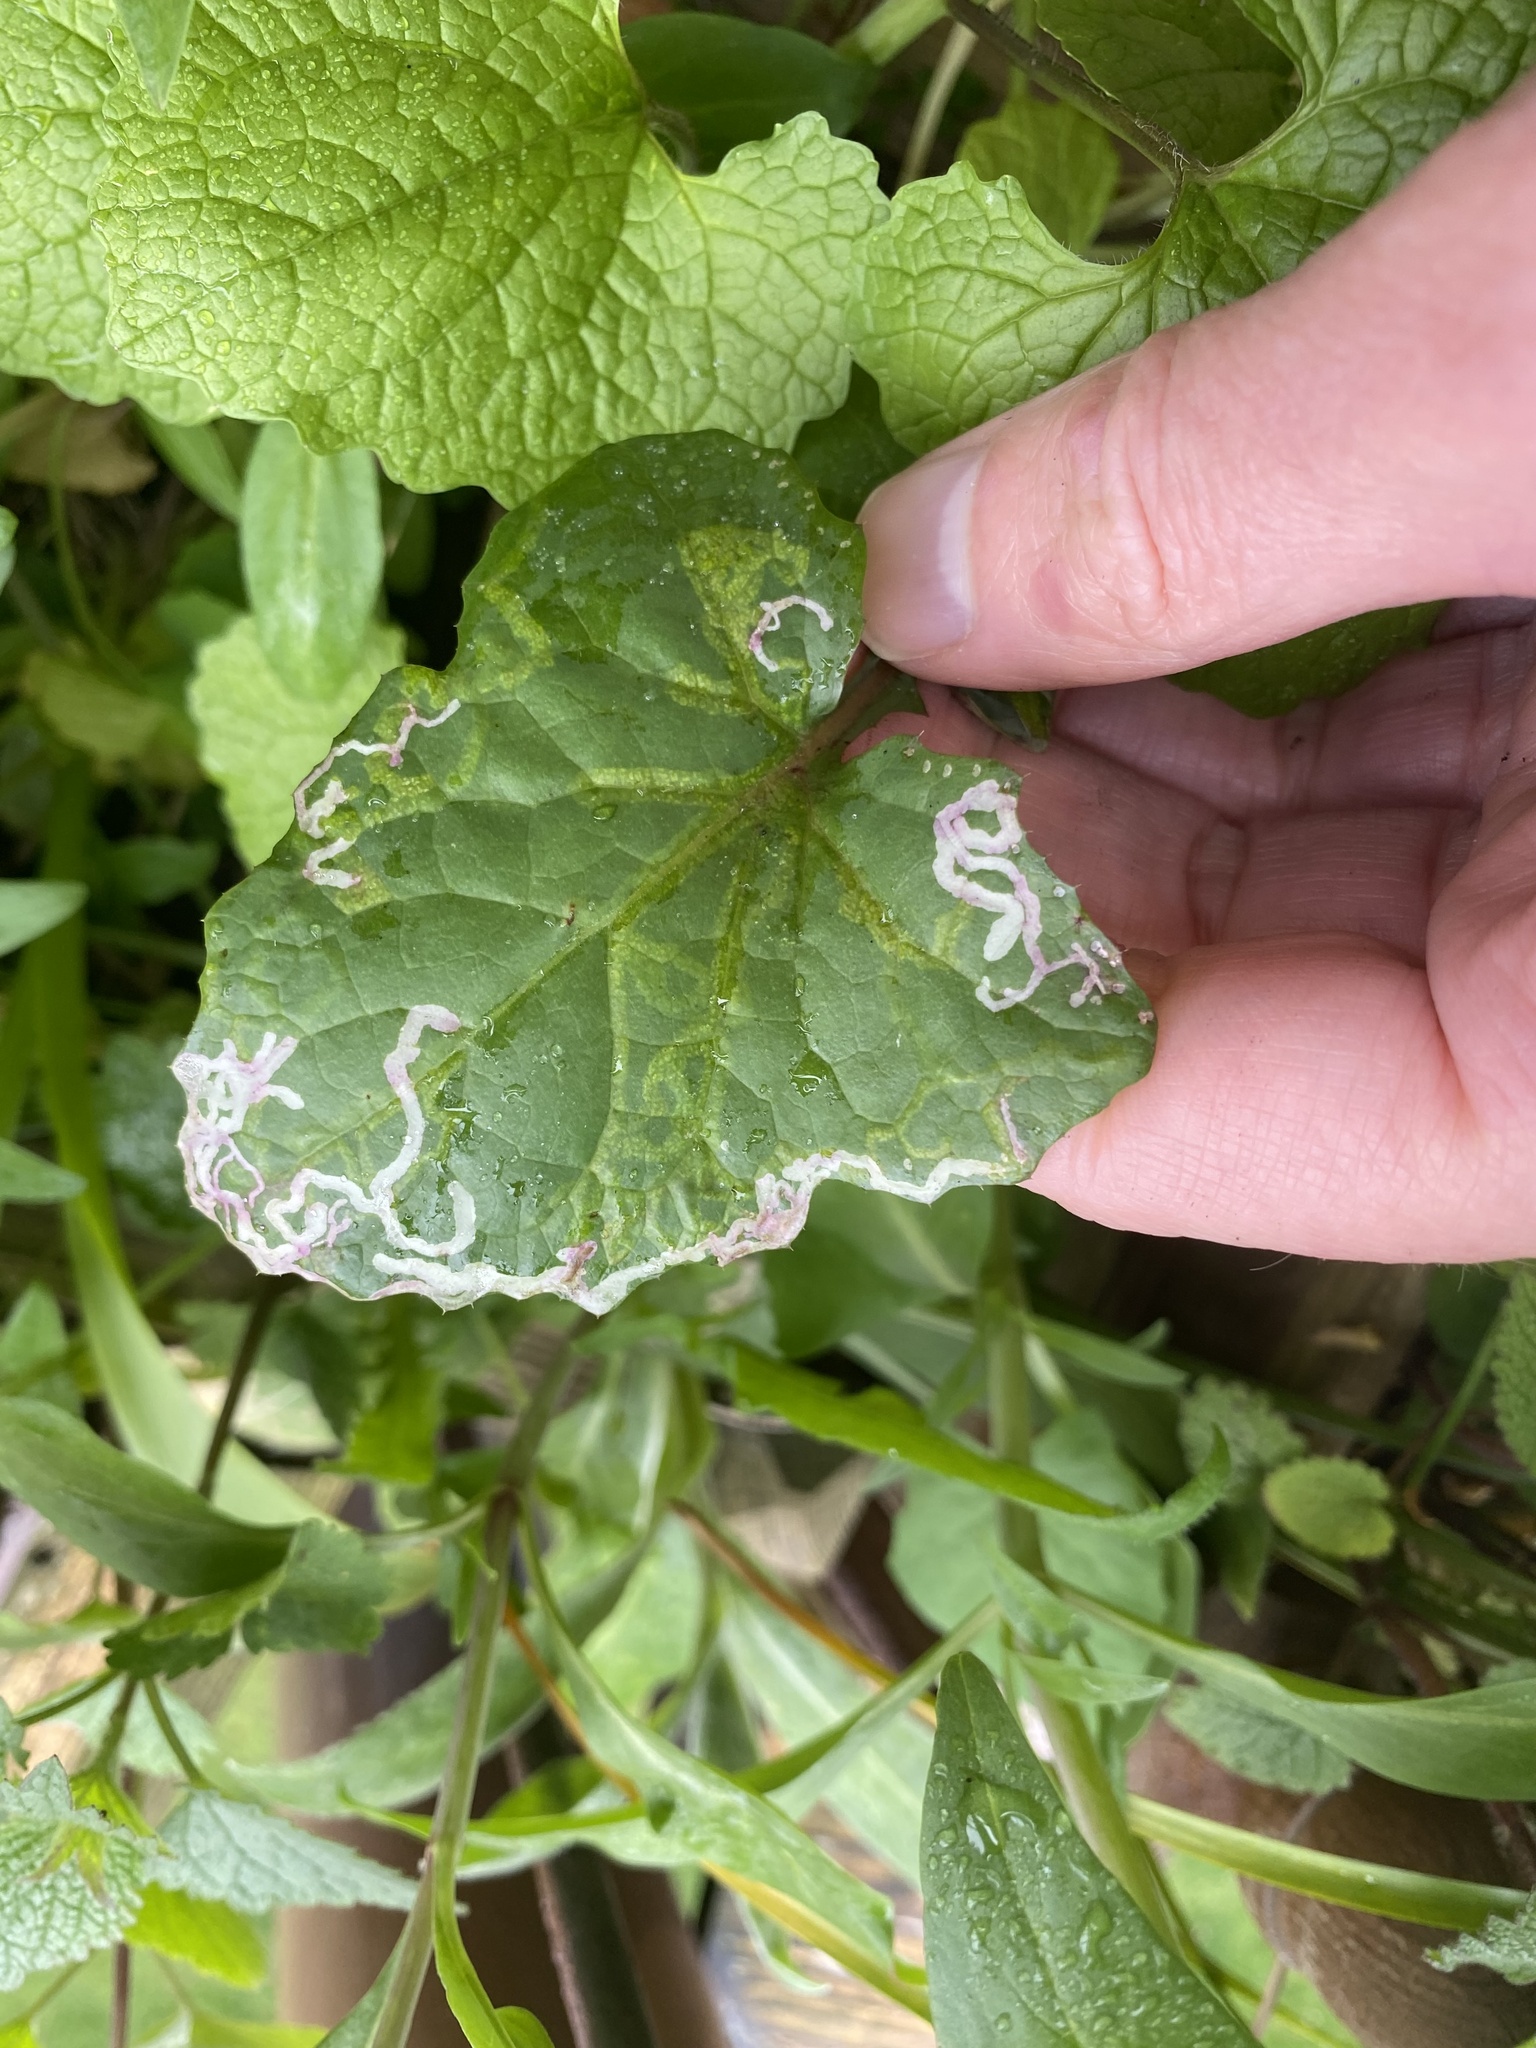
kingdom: Animalia
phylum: Arthropoda
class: Insecta
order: Diptera
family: Agromyzidae
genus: Phytomyza
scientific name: Phytomyza
